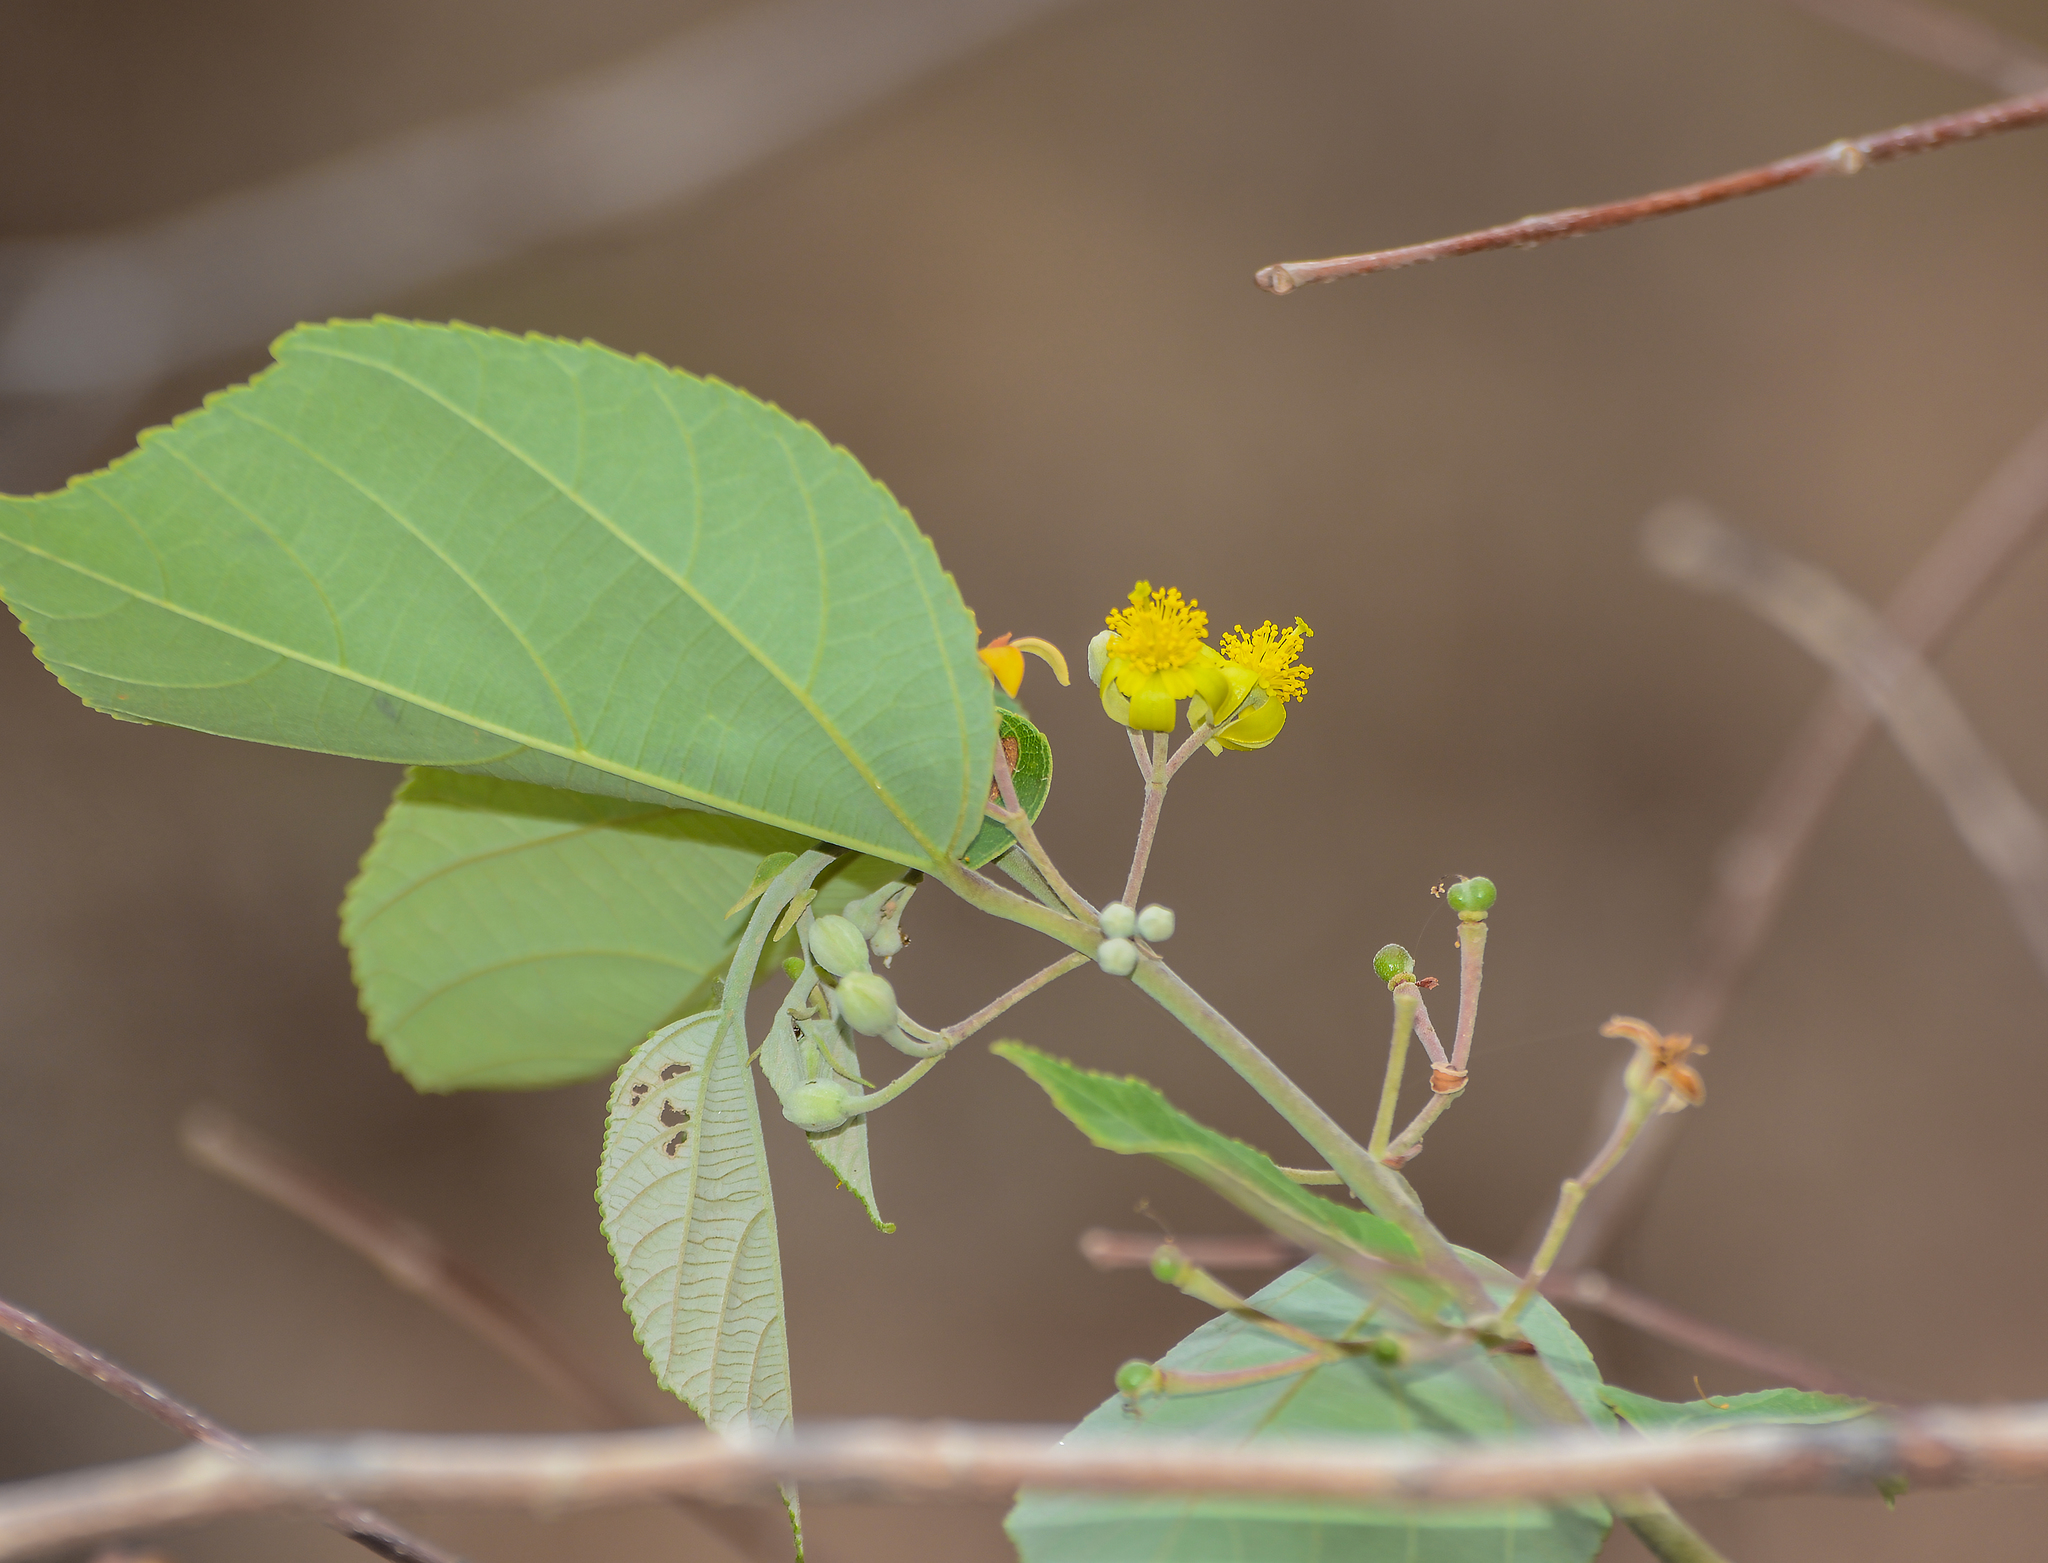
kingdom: Plantae
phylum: Tracheophyta
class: Magnoliopsida
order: Malvales
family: Malvaceae
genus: Grewia
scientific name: Grewia tiliifolia
